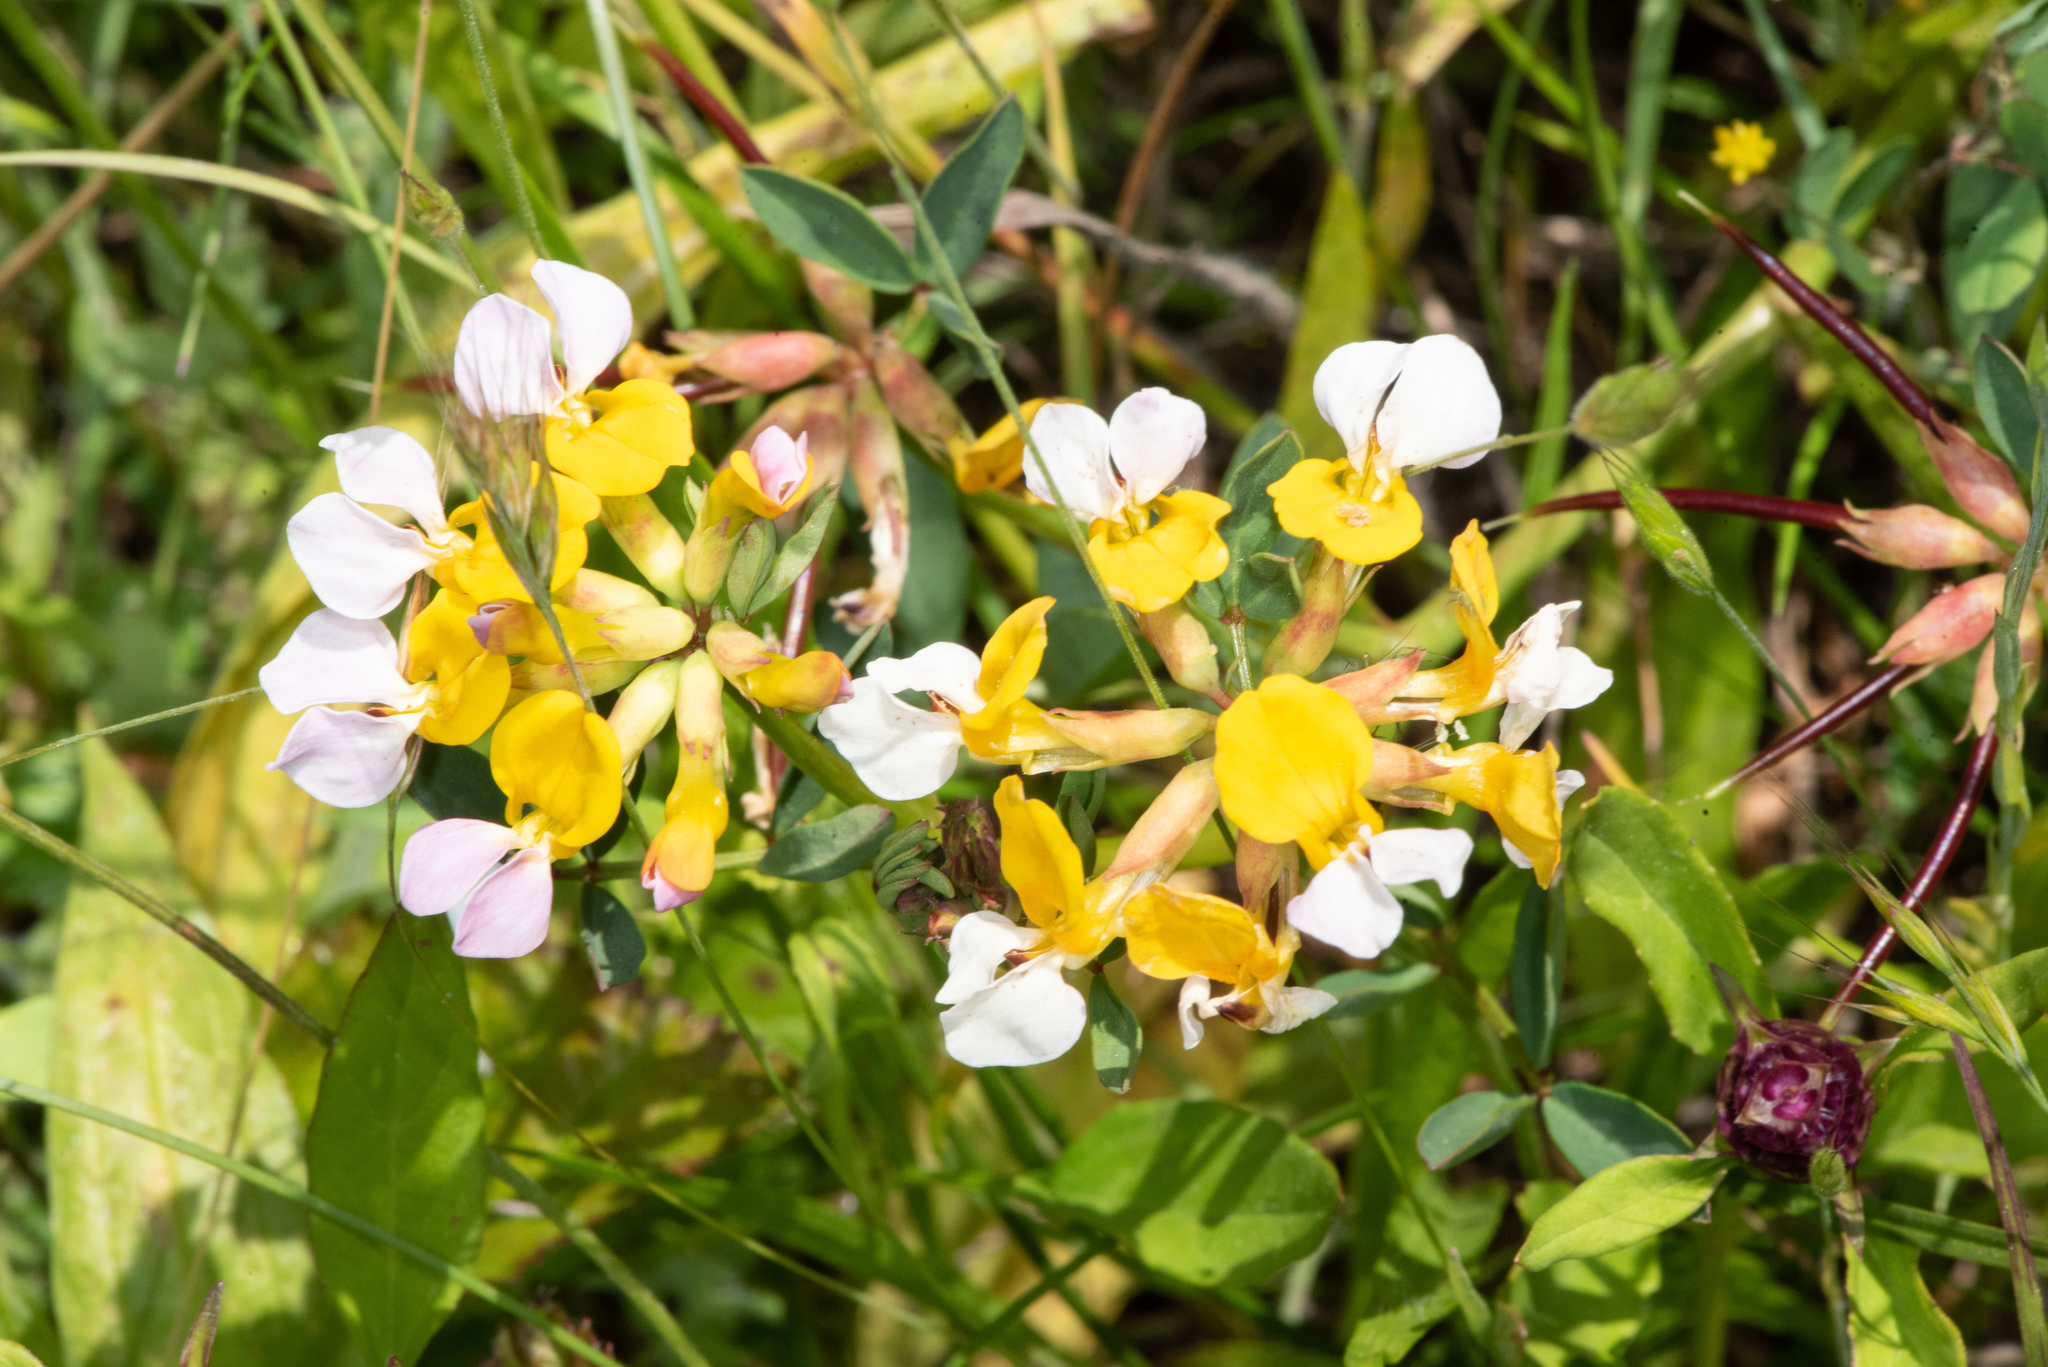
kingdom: Plantae
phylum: Tracheophyta
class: Magnoliopsida
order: Fabales
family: Fabaceae
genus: Hosackia
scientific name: Hosackia gracilis
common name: Seaside bird's-foot lotus
